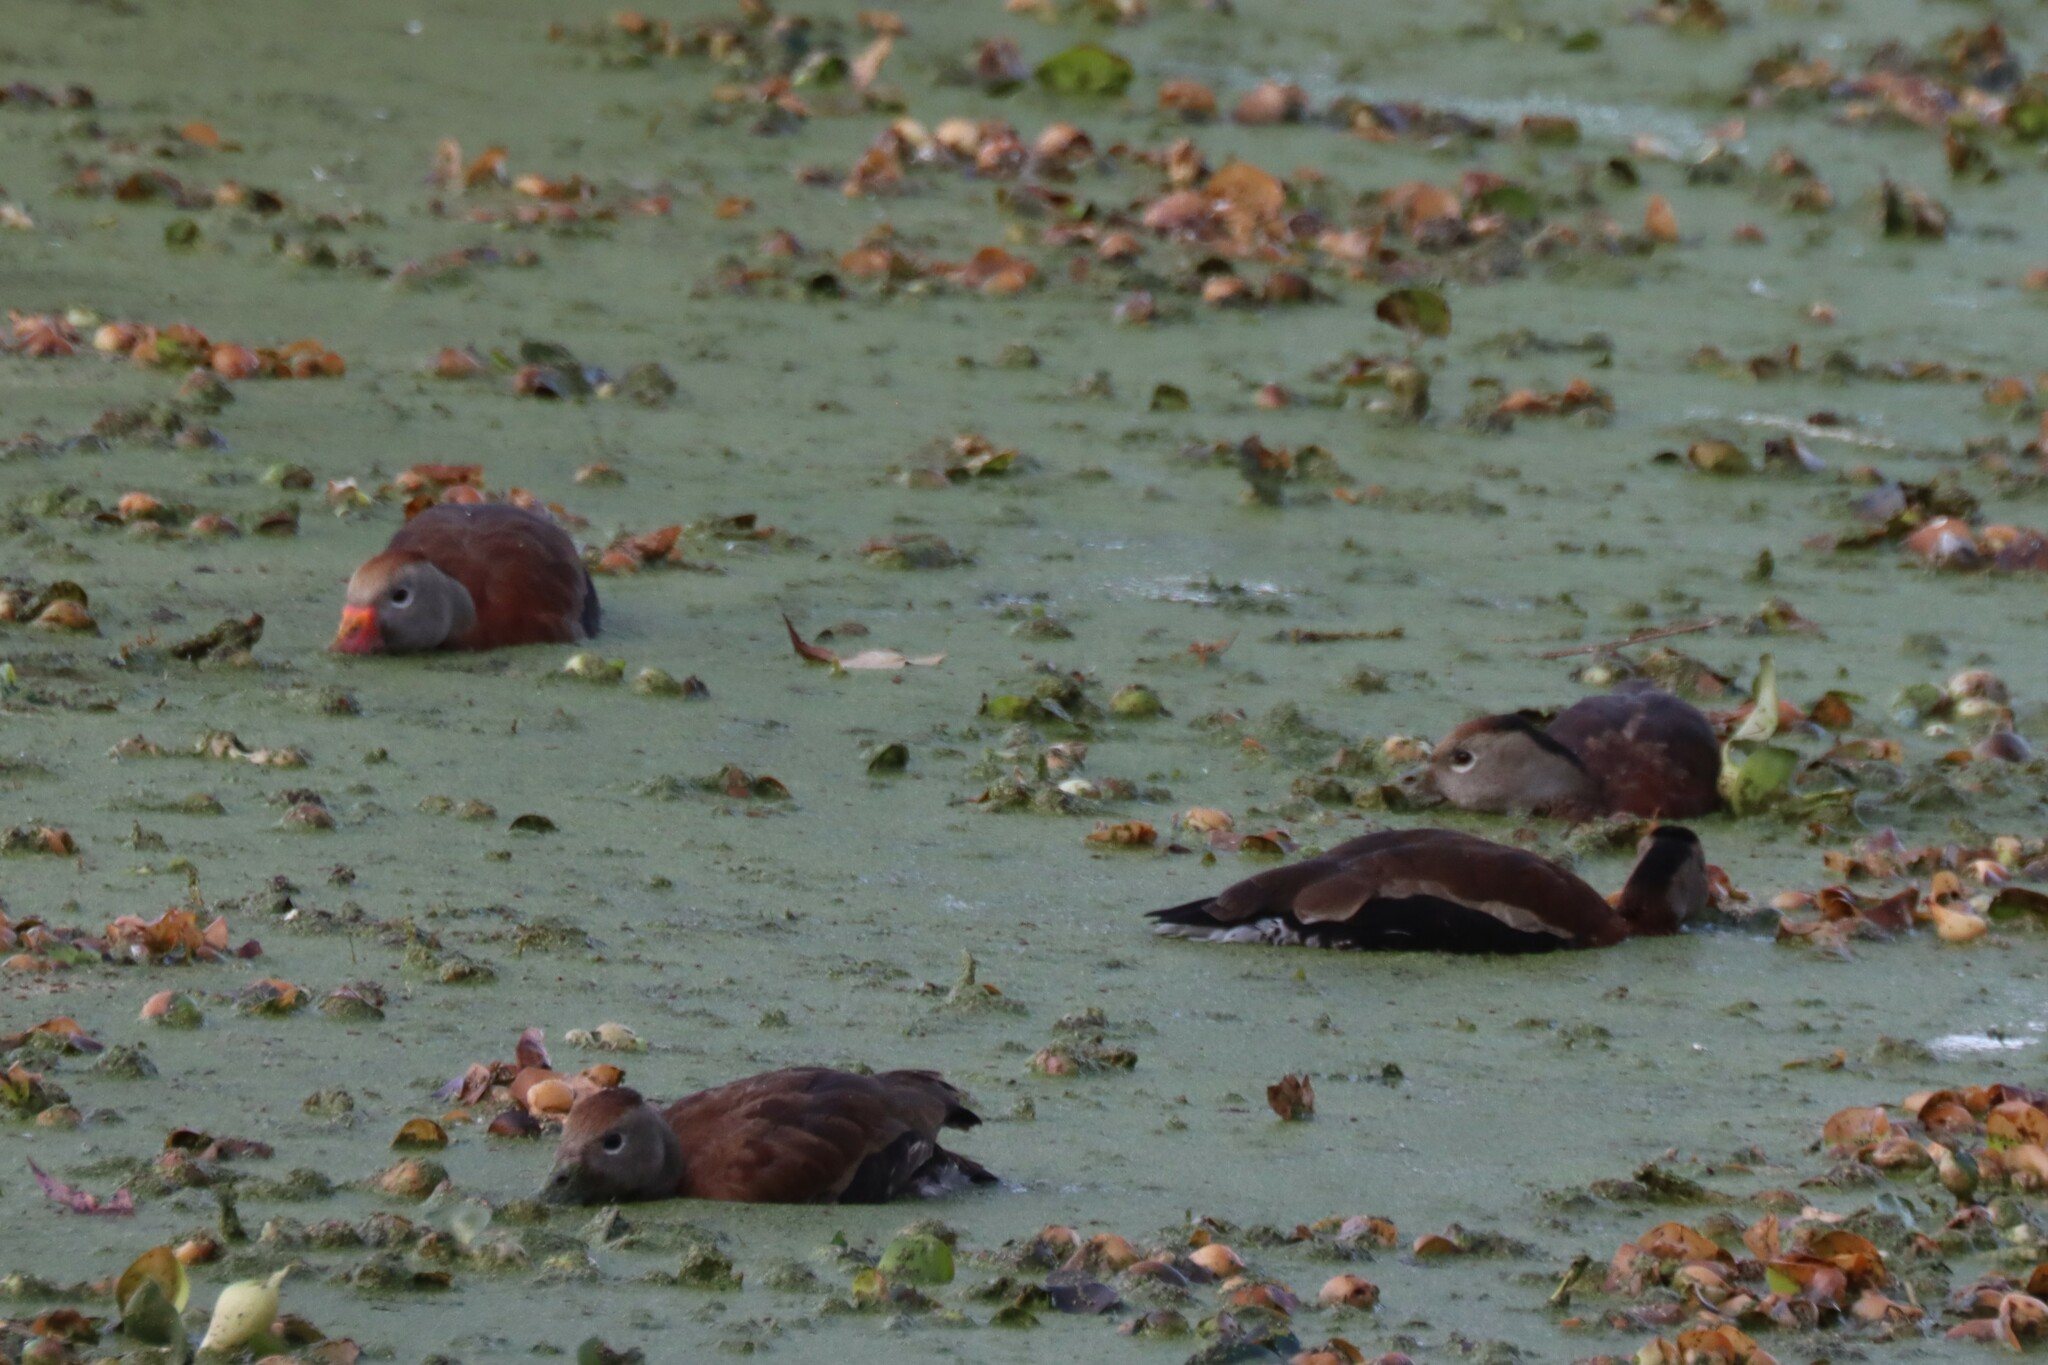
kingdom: Animalia
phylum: Chordata
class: Aves
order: Anseriformes
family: Anatidae
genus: Dendrocygna
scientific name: Dendrocygna autumnalis
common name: Black-bellied whistling duck
